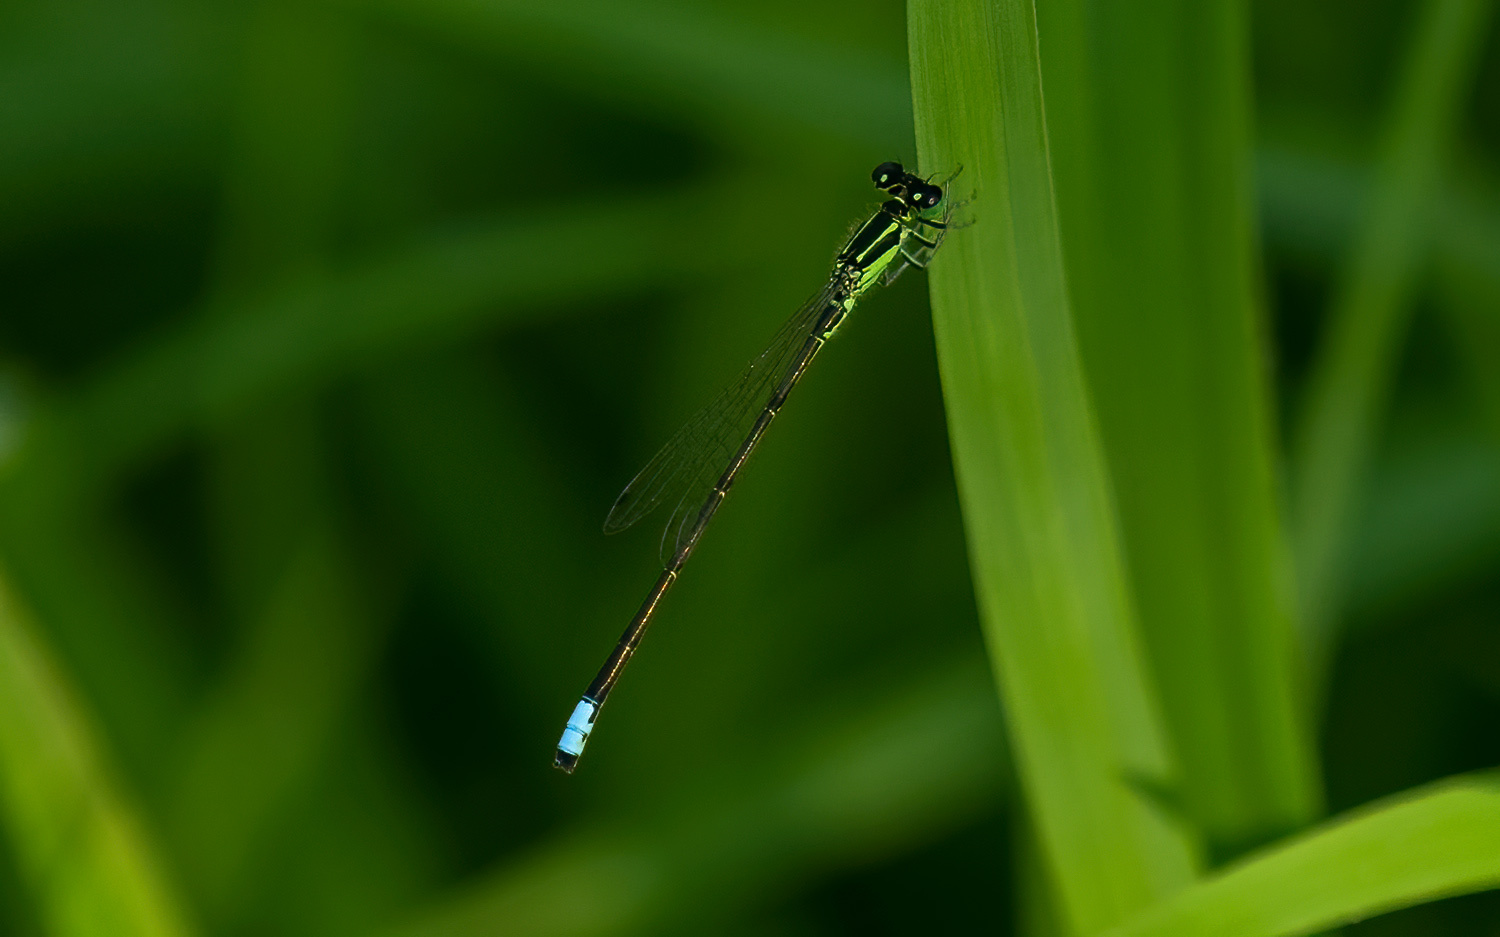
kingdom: Animalia
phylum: Arthropoda
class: Insecta
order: Odonata
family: Coenagrionidae
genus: Ischnura
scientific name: Ischnura verticalis
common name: Eastern forktail
